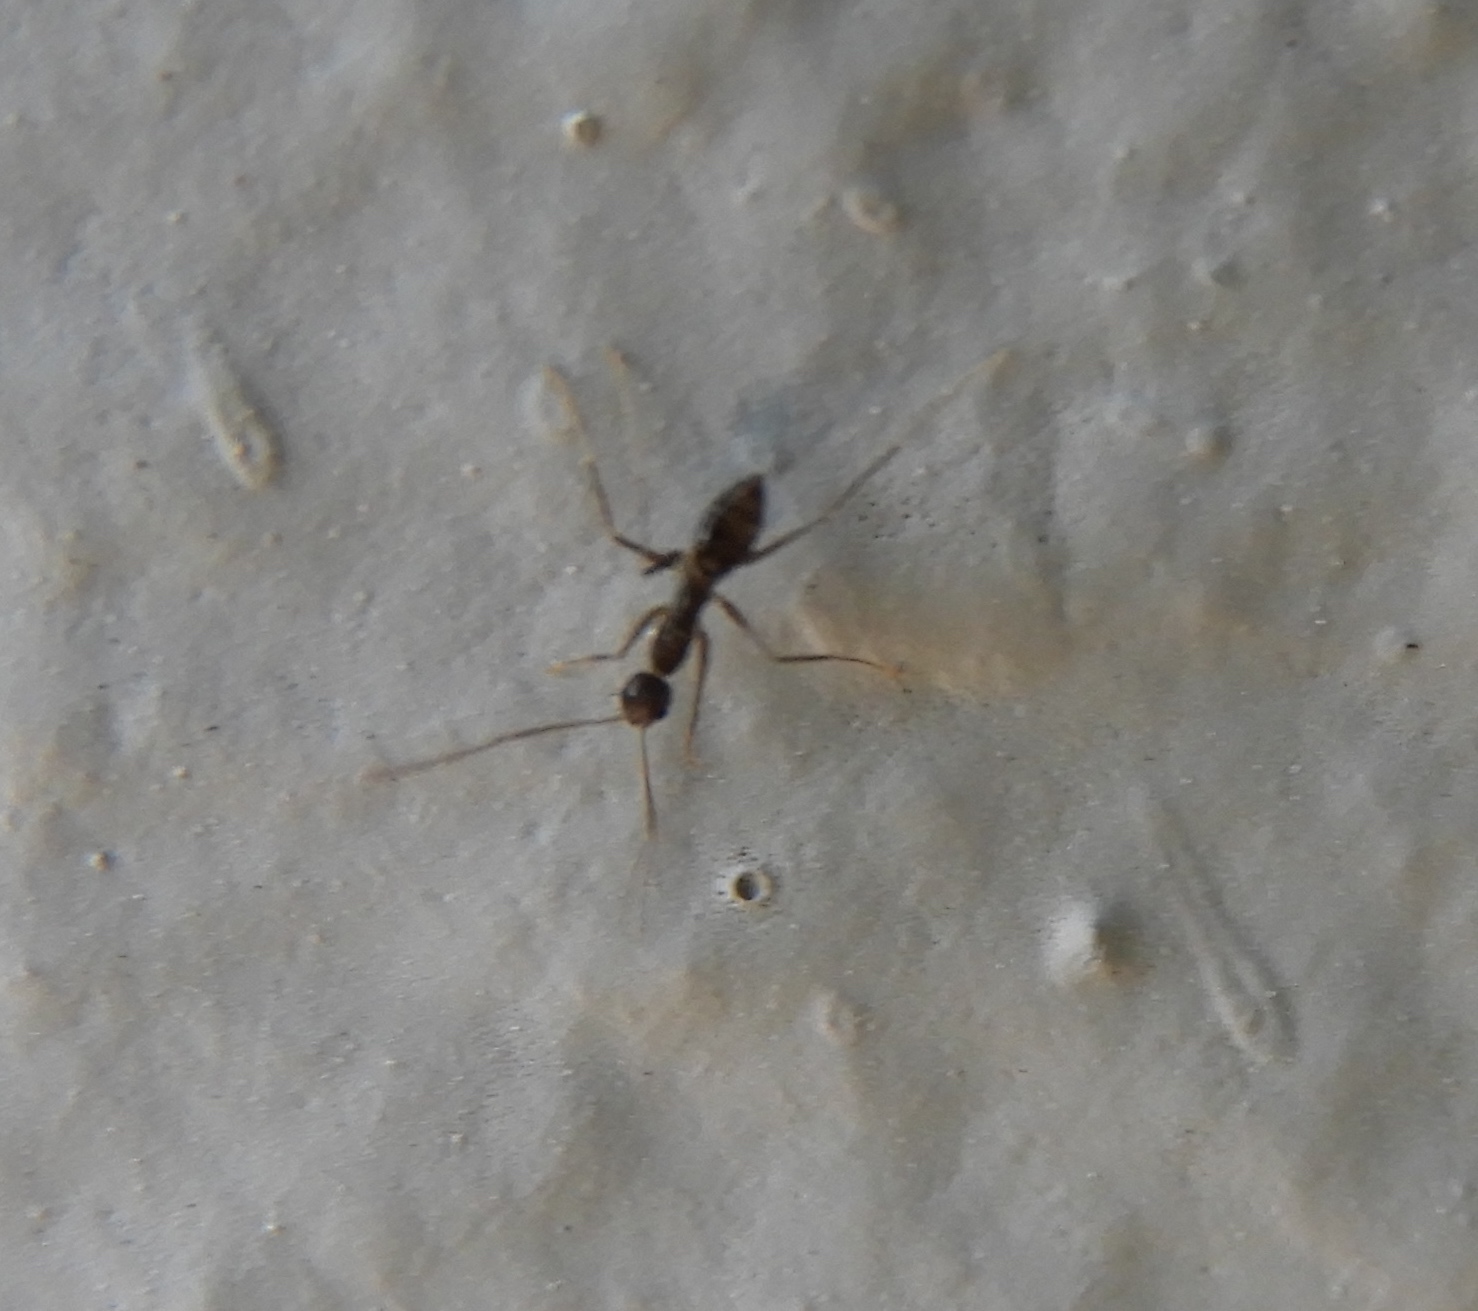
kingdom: Animalia
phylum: Arthropoda
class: Insecta
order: Hymenoptera
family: Formicidae
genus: Paratrechina
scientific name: Paratrechina longicornis
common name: Longhorned crazy ant
